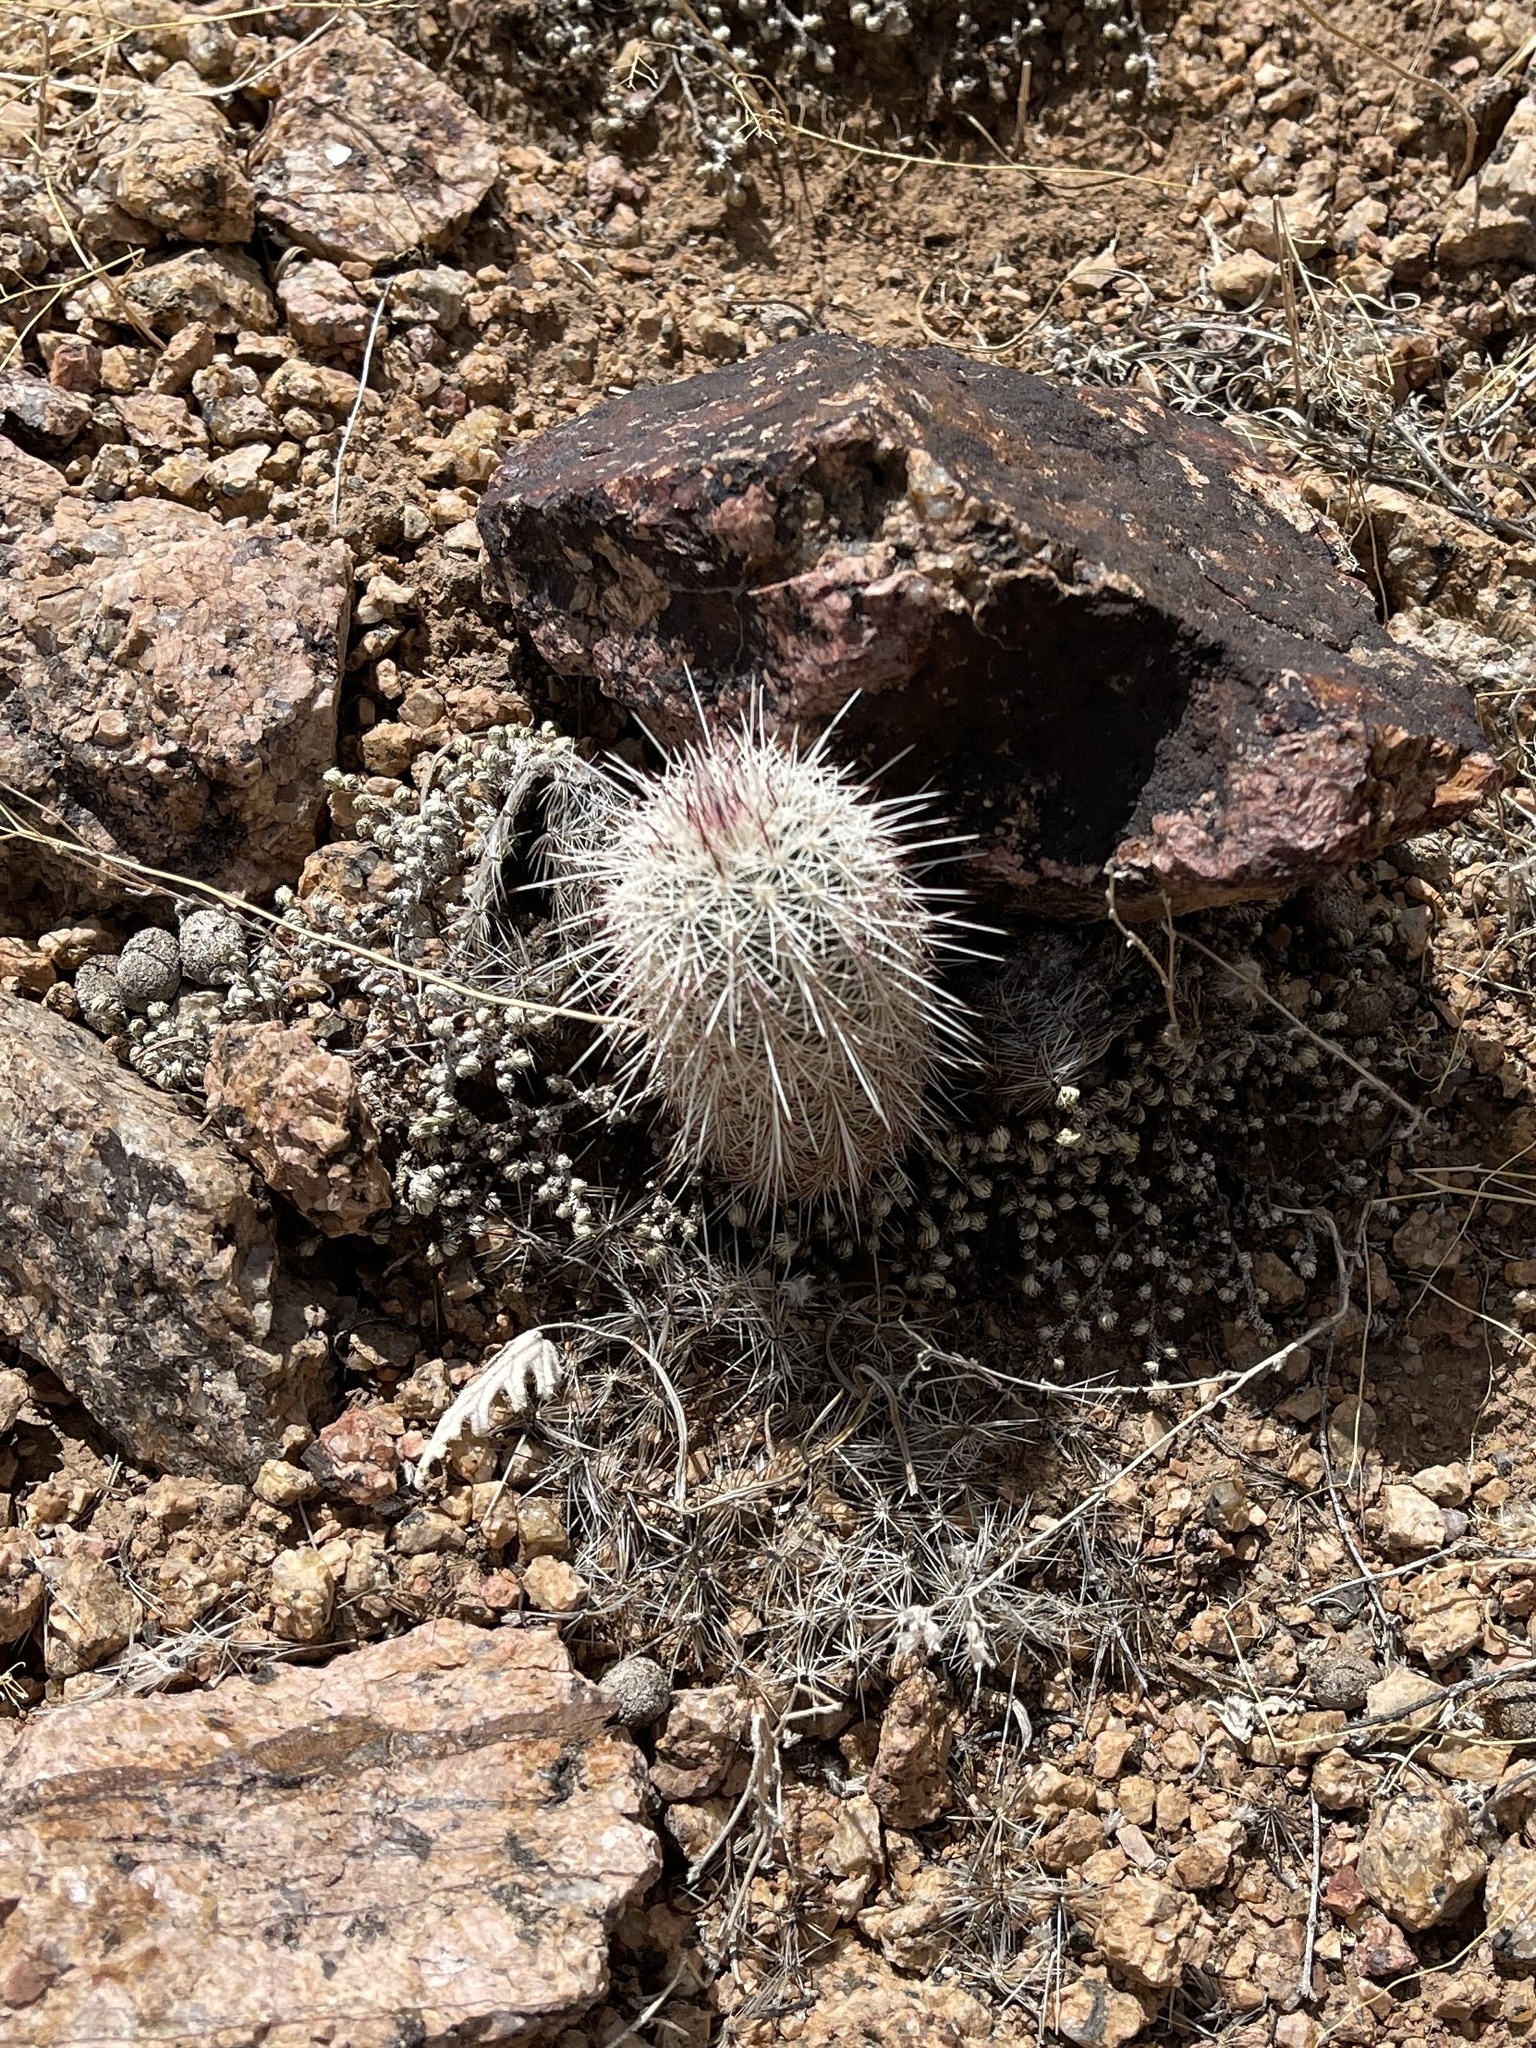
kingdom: Plantae
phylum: Tracheophyta
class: Magnoliopsida
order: Caryophyllales
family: Cactaceae
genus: Echinocereus
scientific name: Echinocereus viridiflorus
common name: Nylon hedgehog cactus
